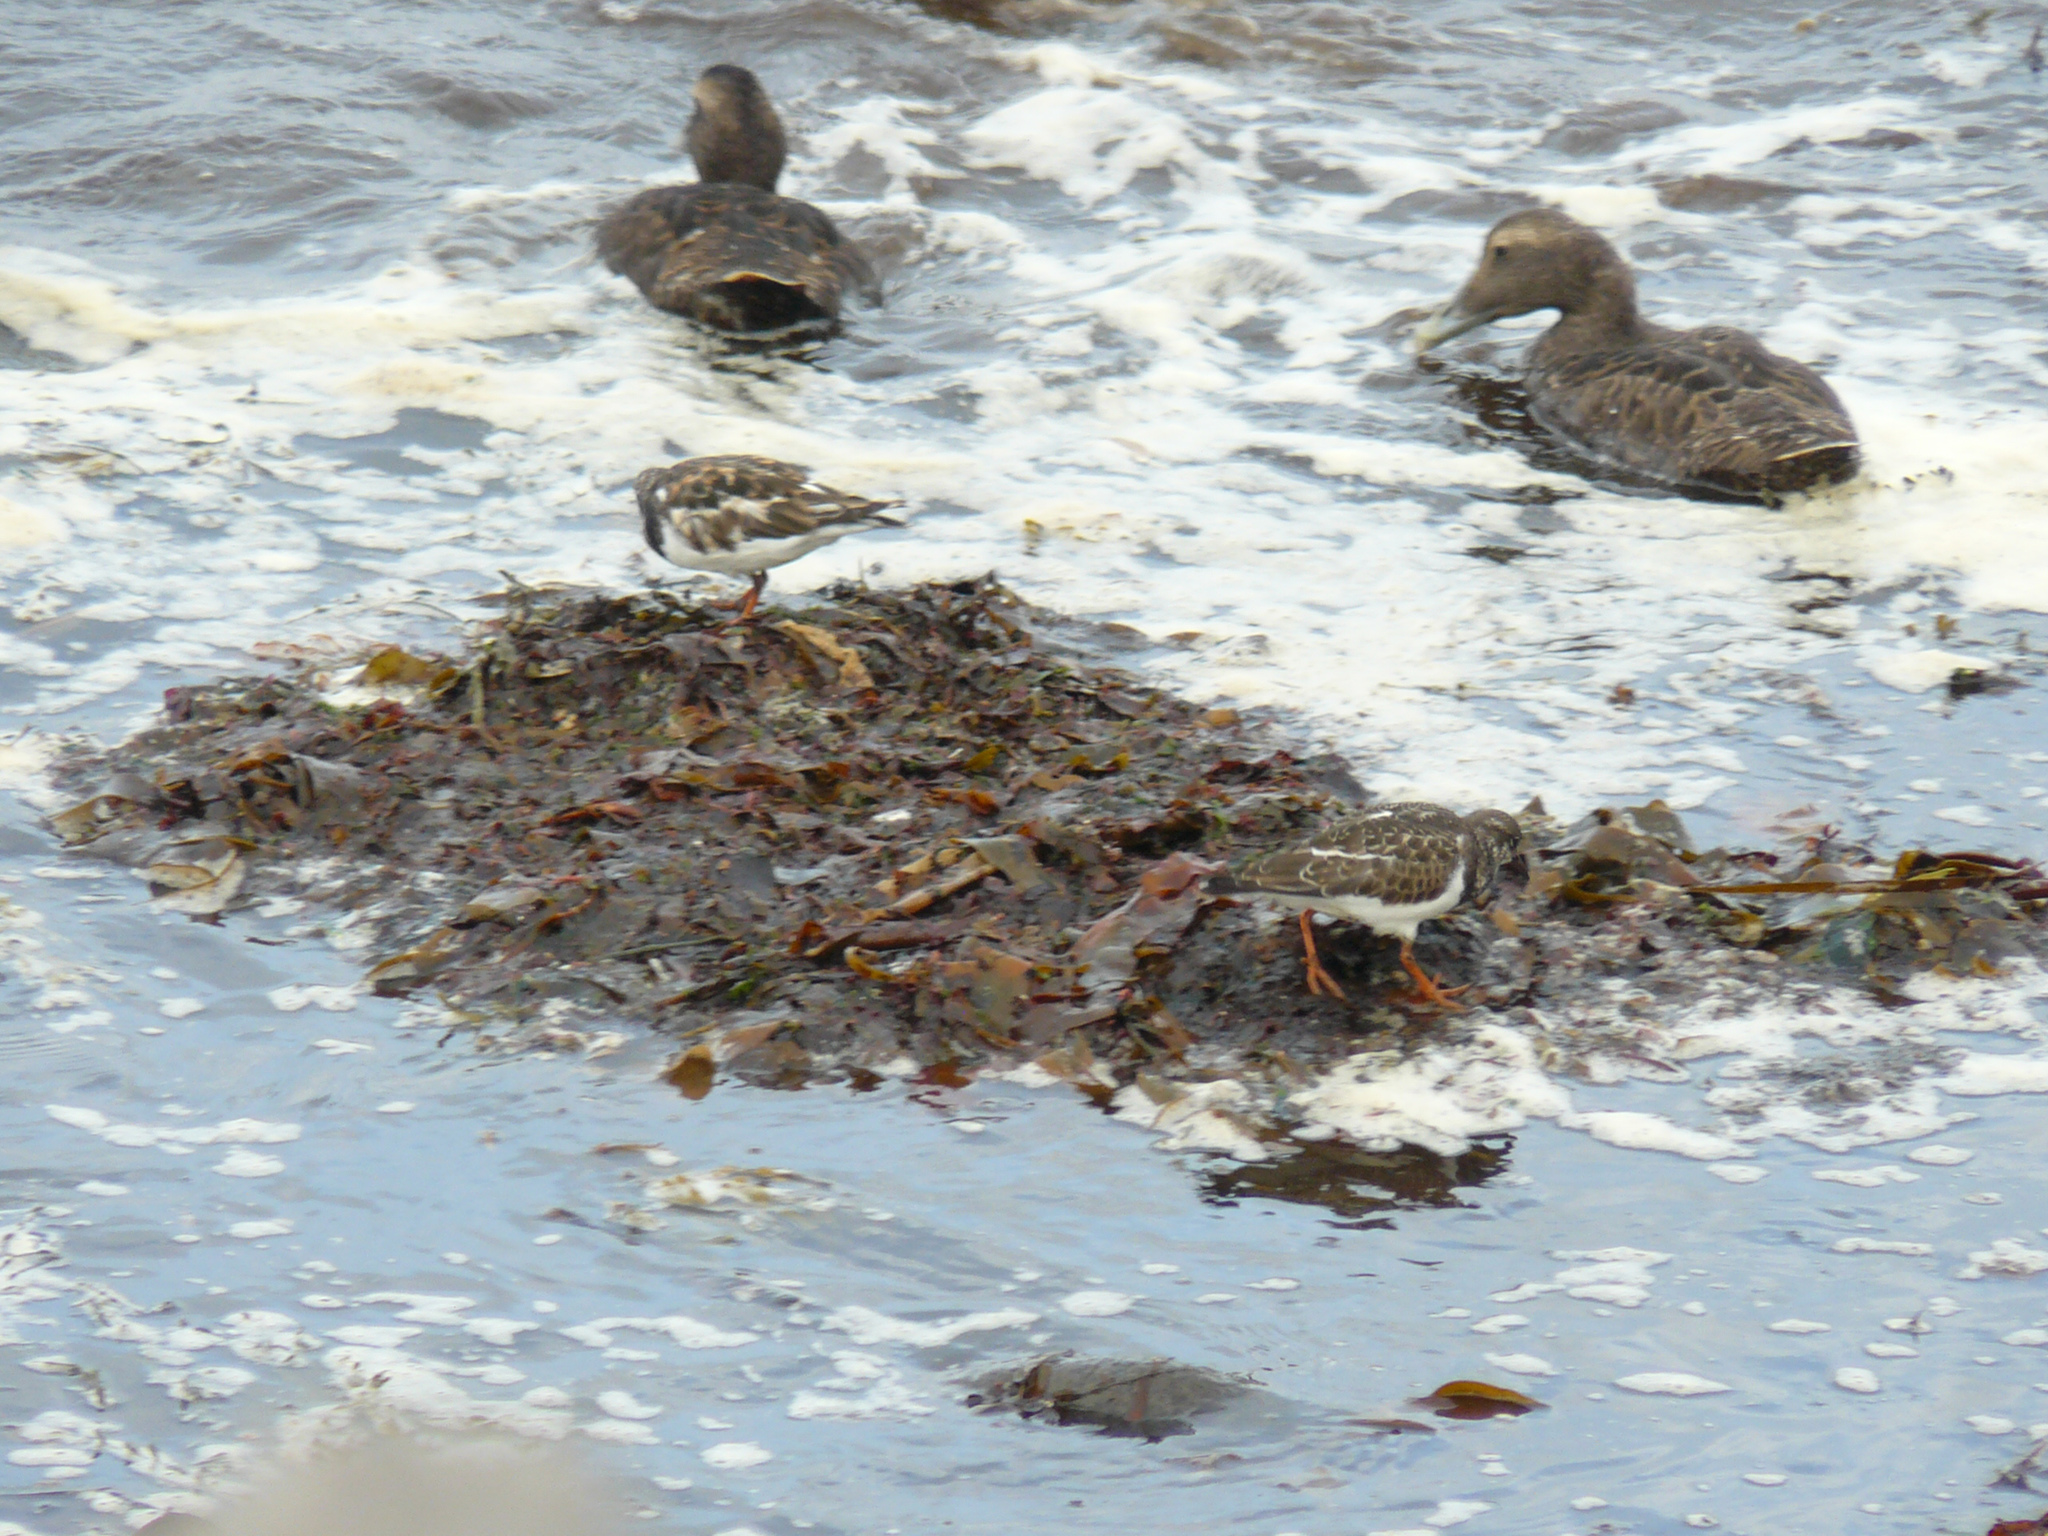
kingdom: Animalia
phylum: Chordata
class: Aves
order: Charadriiformes
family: Scolopacidae
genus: Arenaria
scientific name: Arenaria interpres
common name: Ruddy turnstone
